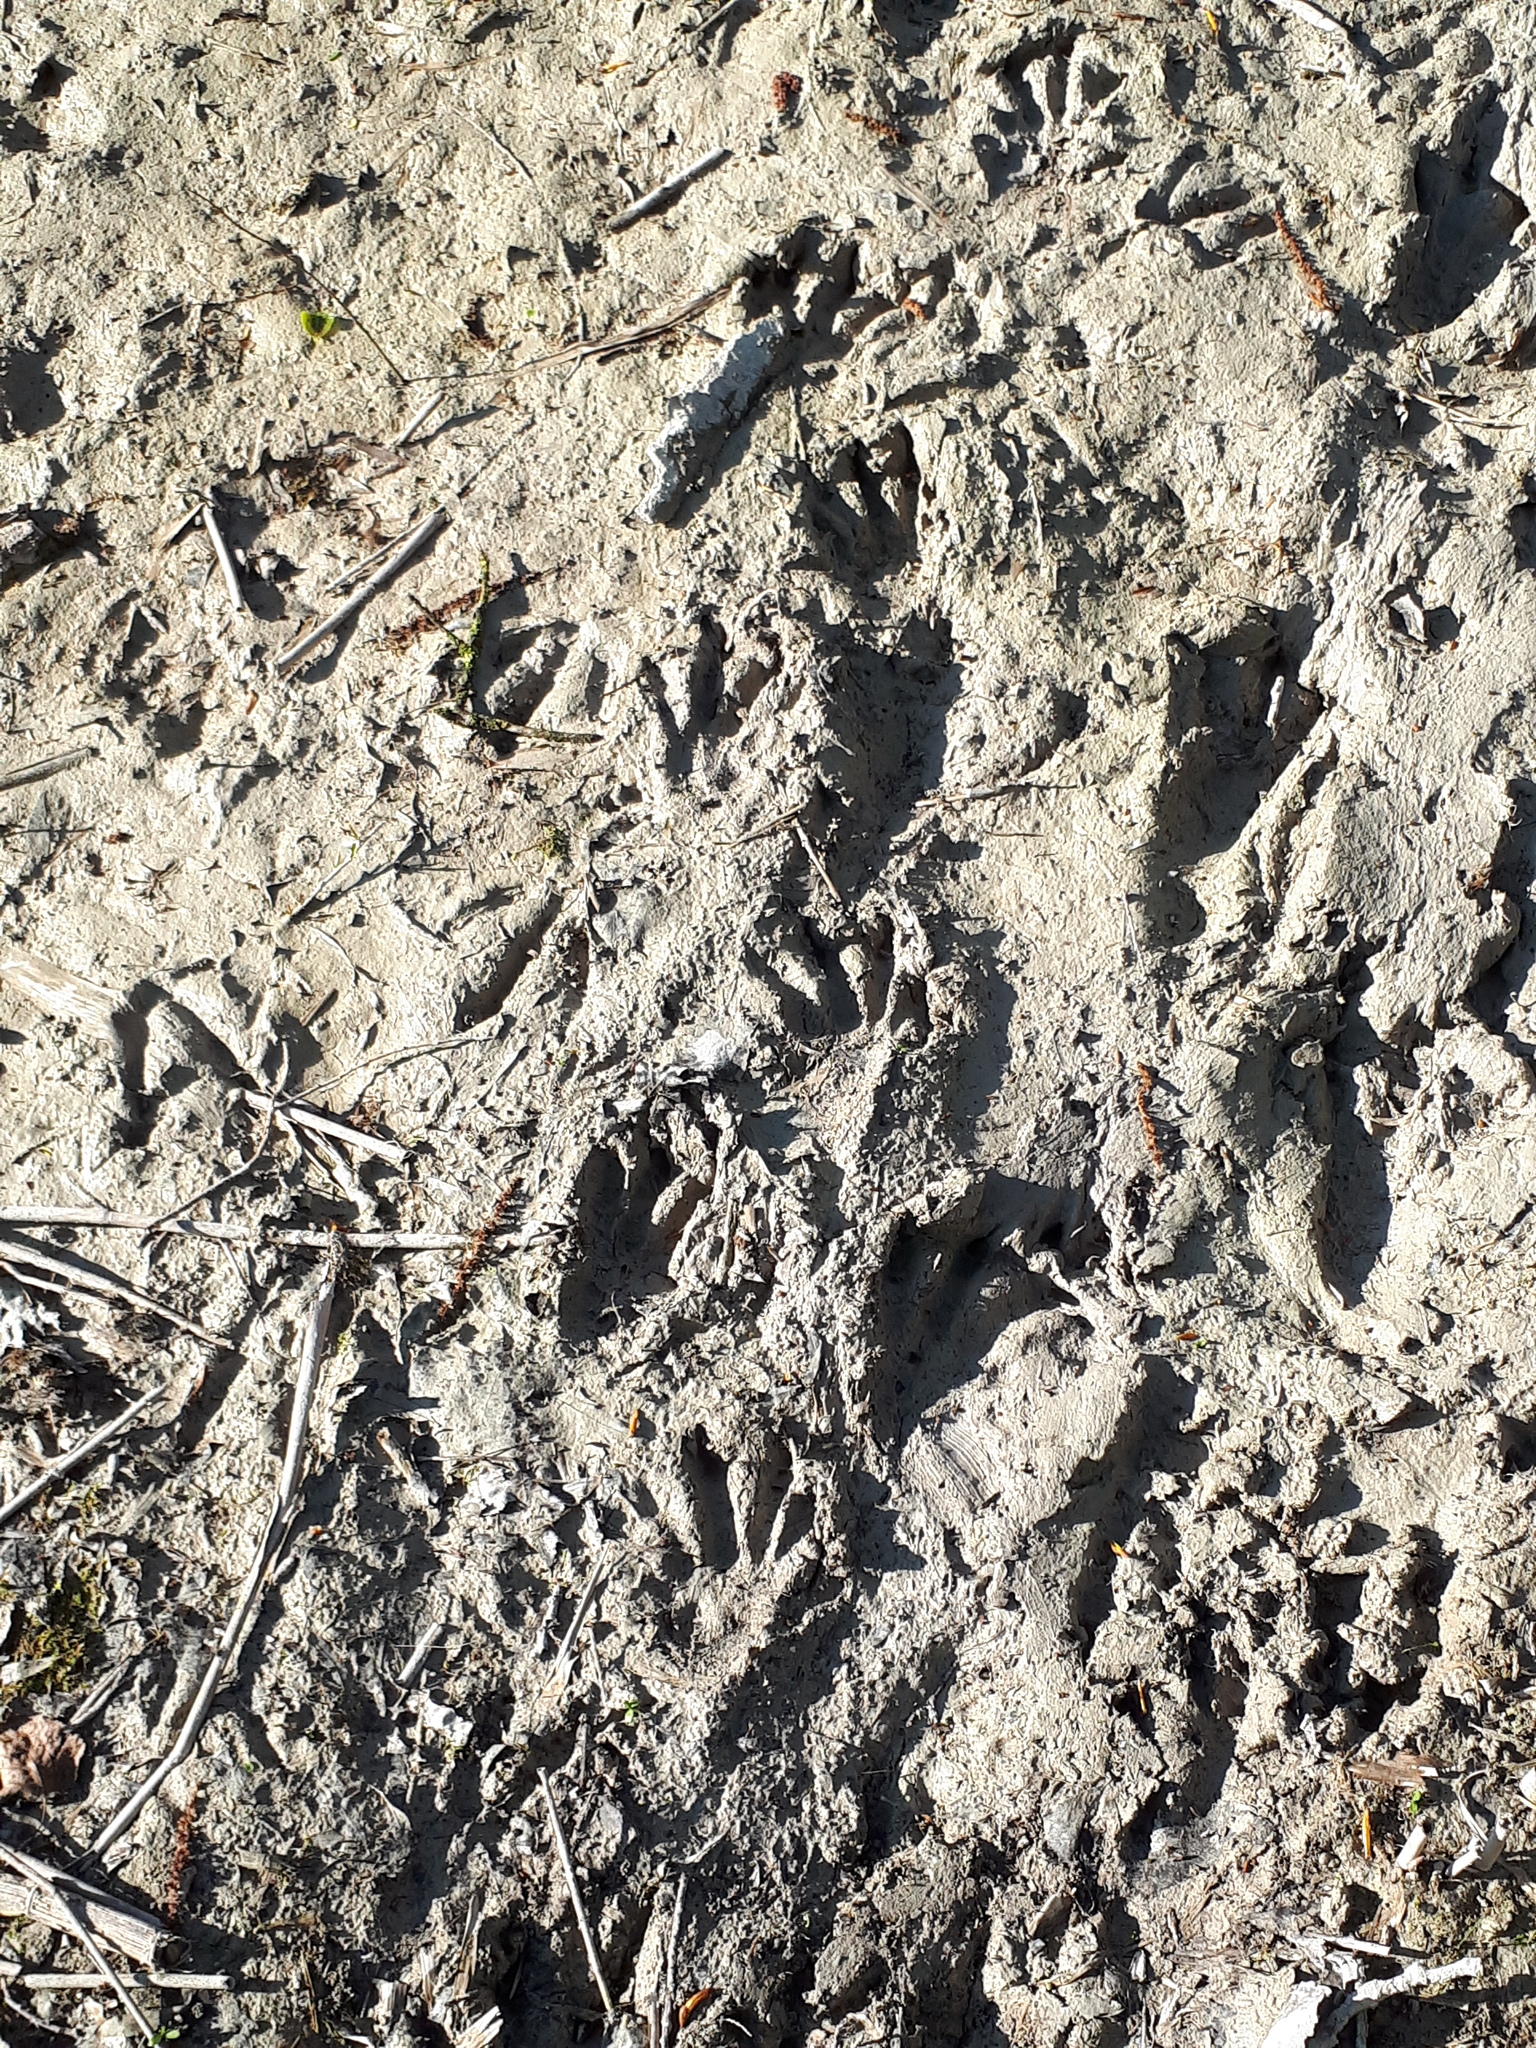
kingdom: Animalia
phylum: Chordata
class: Mammalia
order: Rodentia
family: Myocastoridae
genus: Myocastor
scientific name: Myocastor coypus
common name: Coypu
